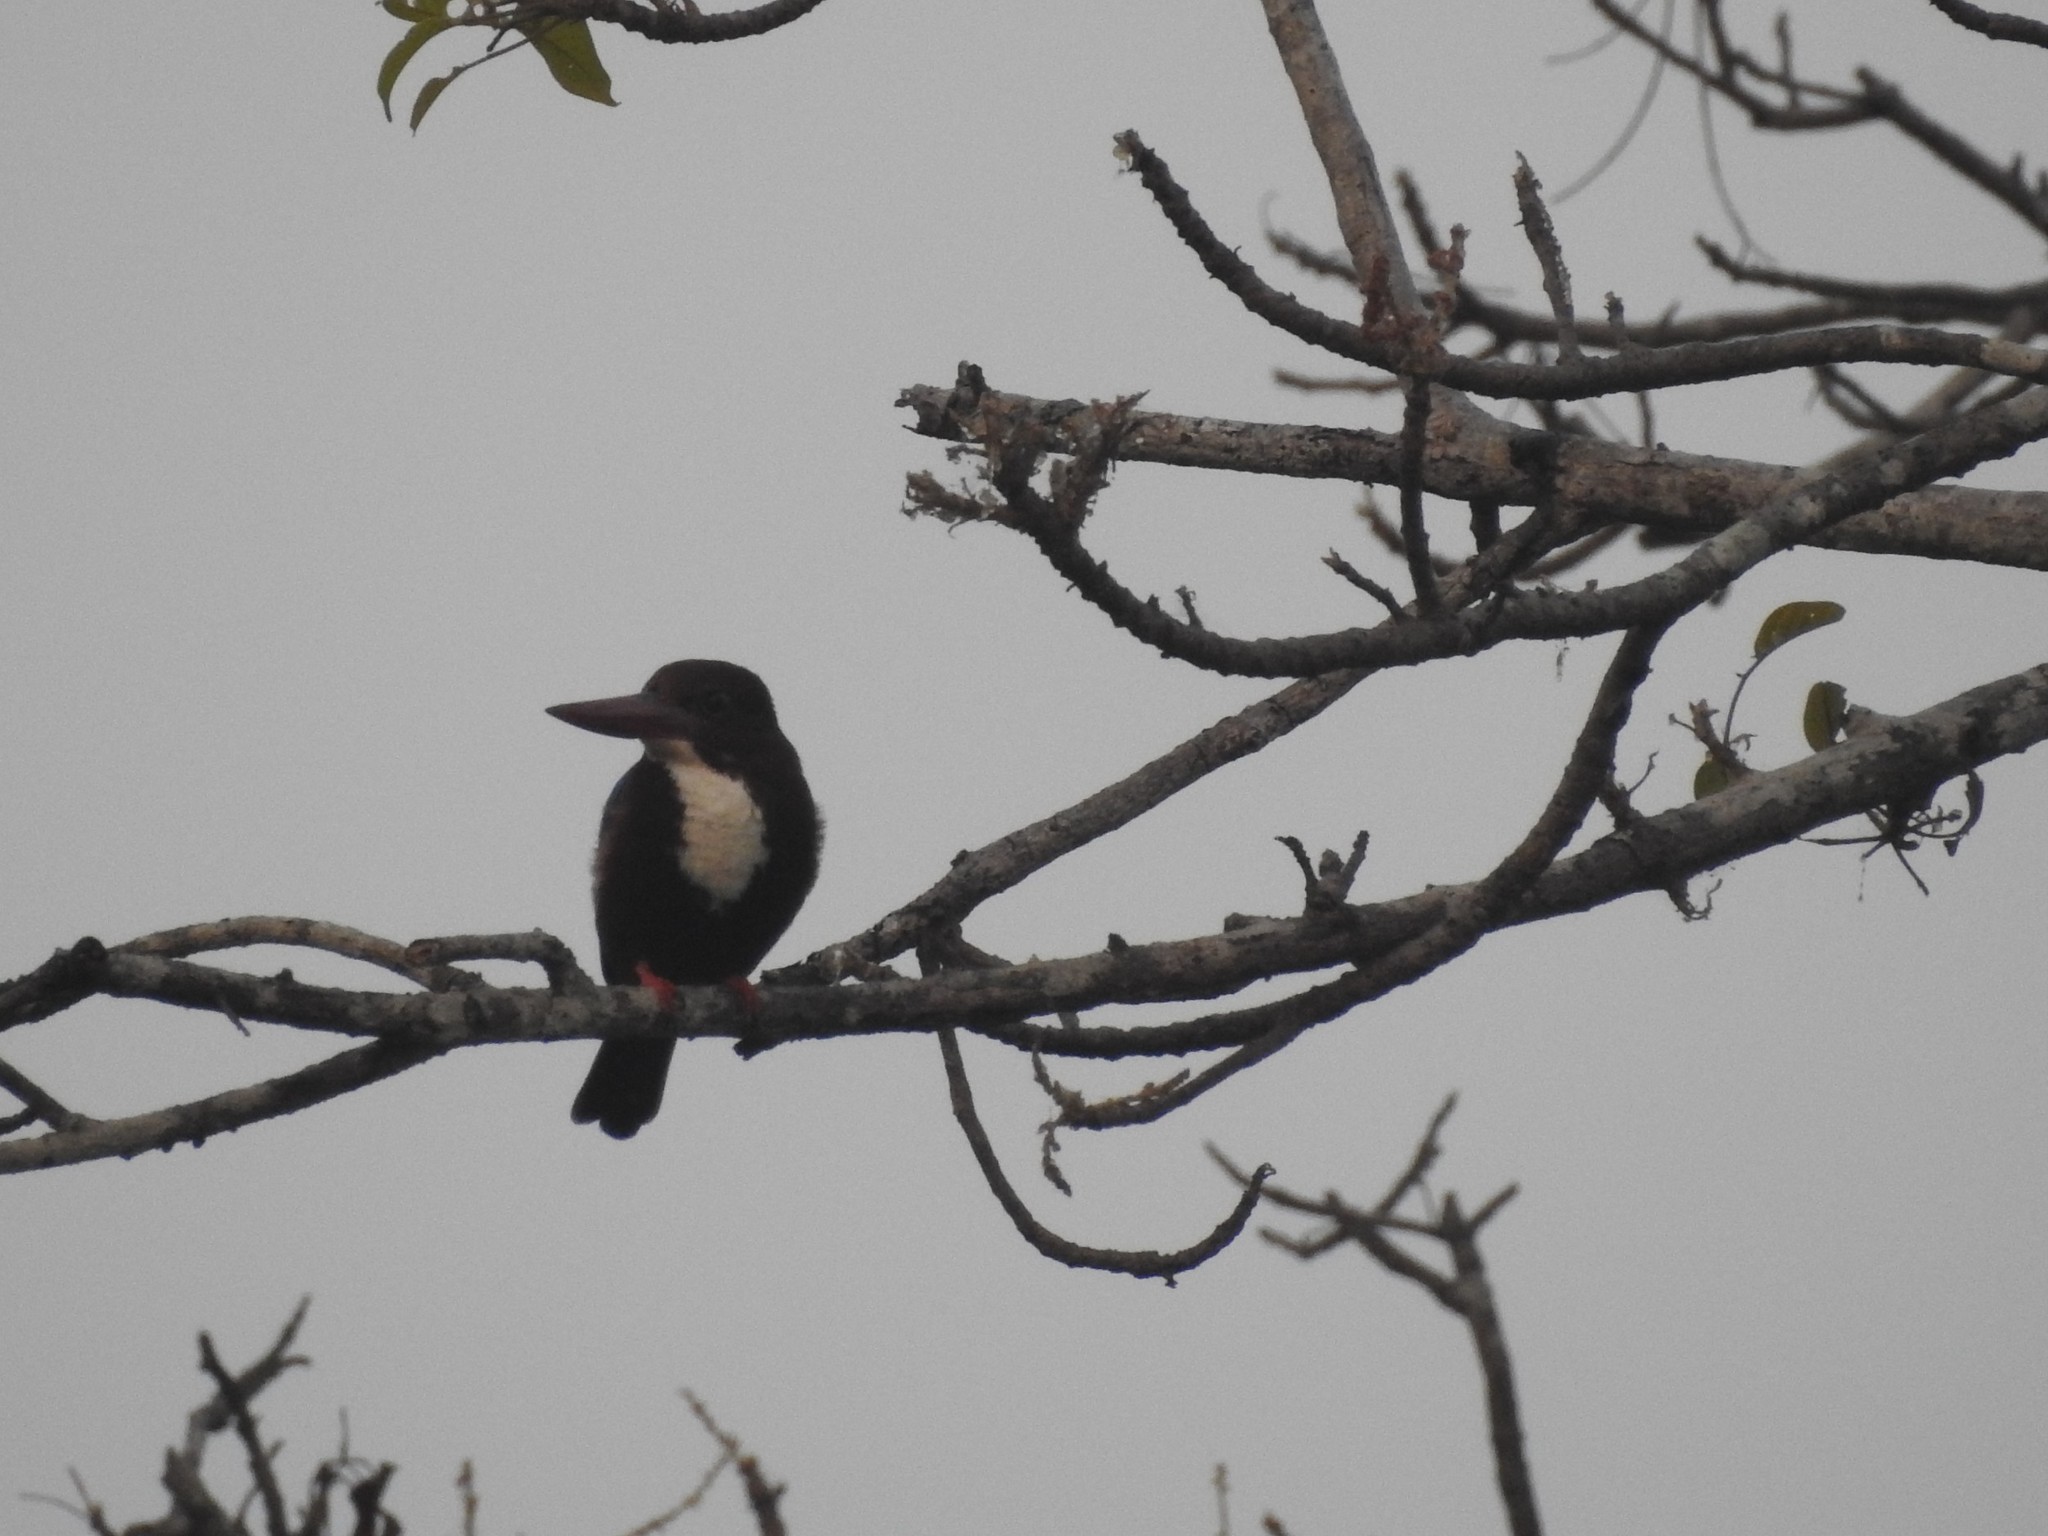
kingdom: Animalia
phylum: Chordata
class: Aves
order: Coraciiformes
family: Alcedinidae
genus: Halcyon
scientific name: Halcyon smyrnensis
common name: White-throated kingfisher
